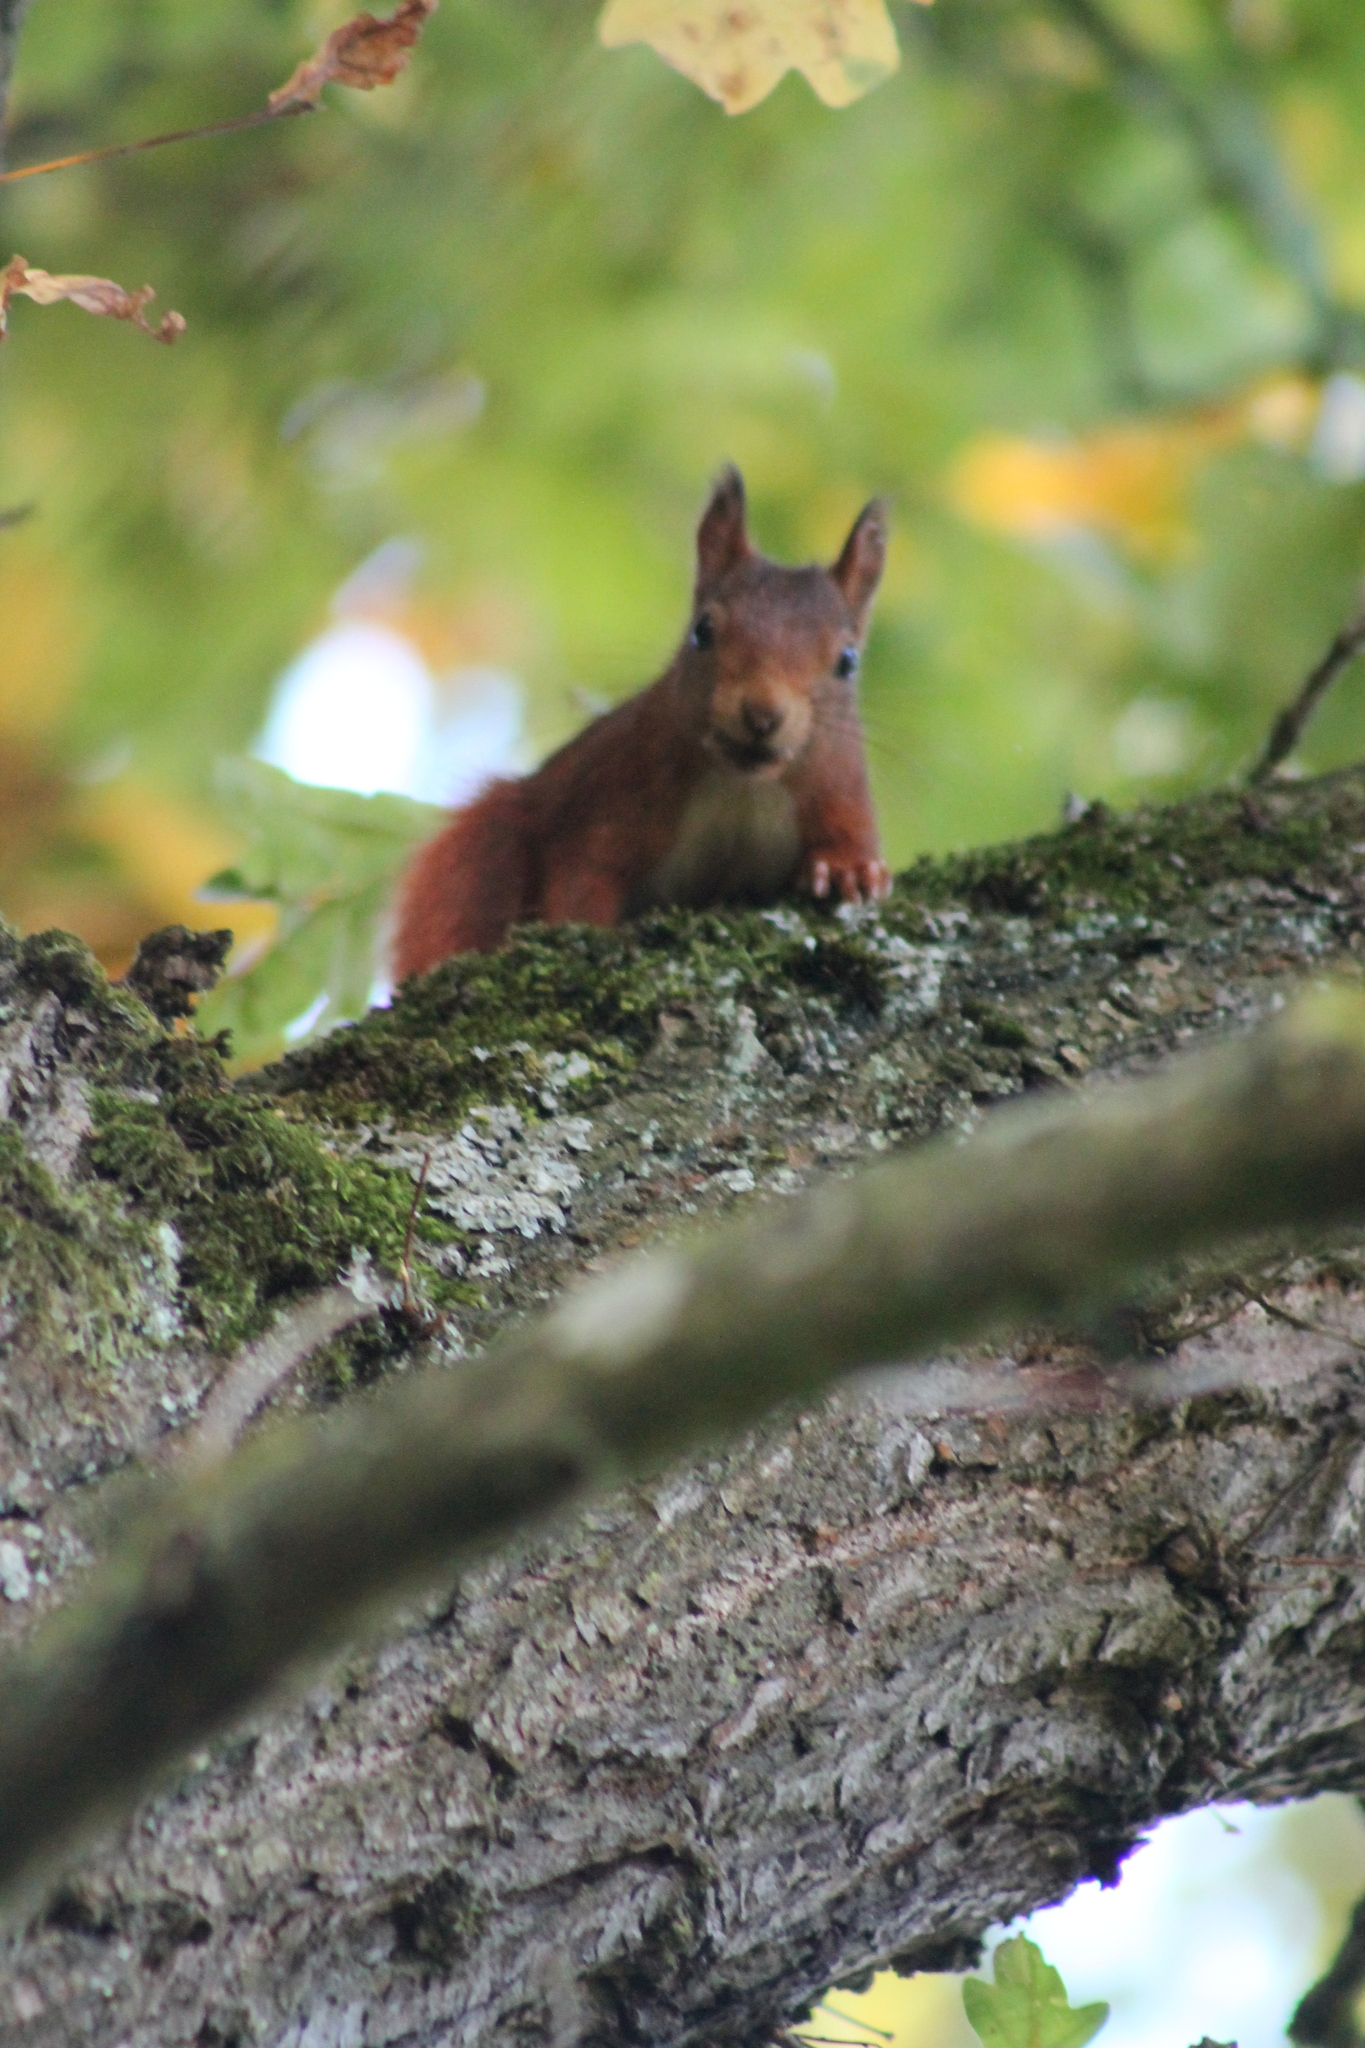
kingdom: Animalia
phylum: Chordata
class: Mammalia
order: Rodentia
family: Sciuridae
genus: Sciurus
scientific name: Sciurus vulgaris
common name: Eurasian red squirrel
